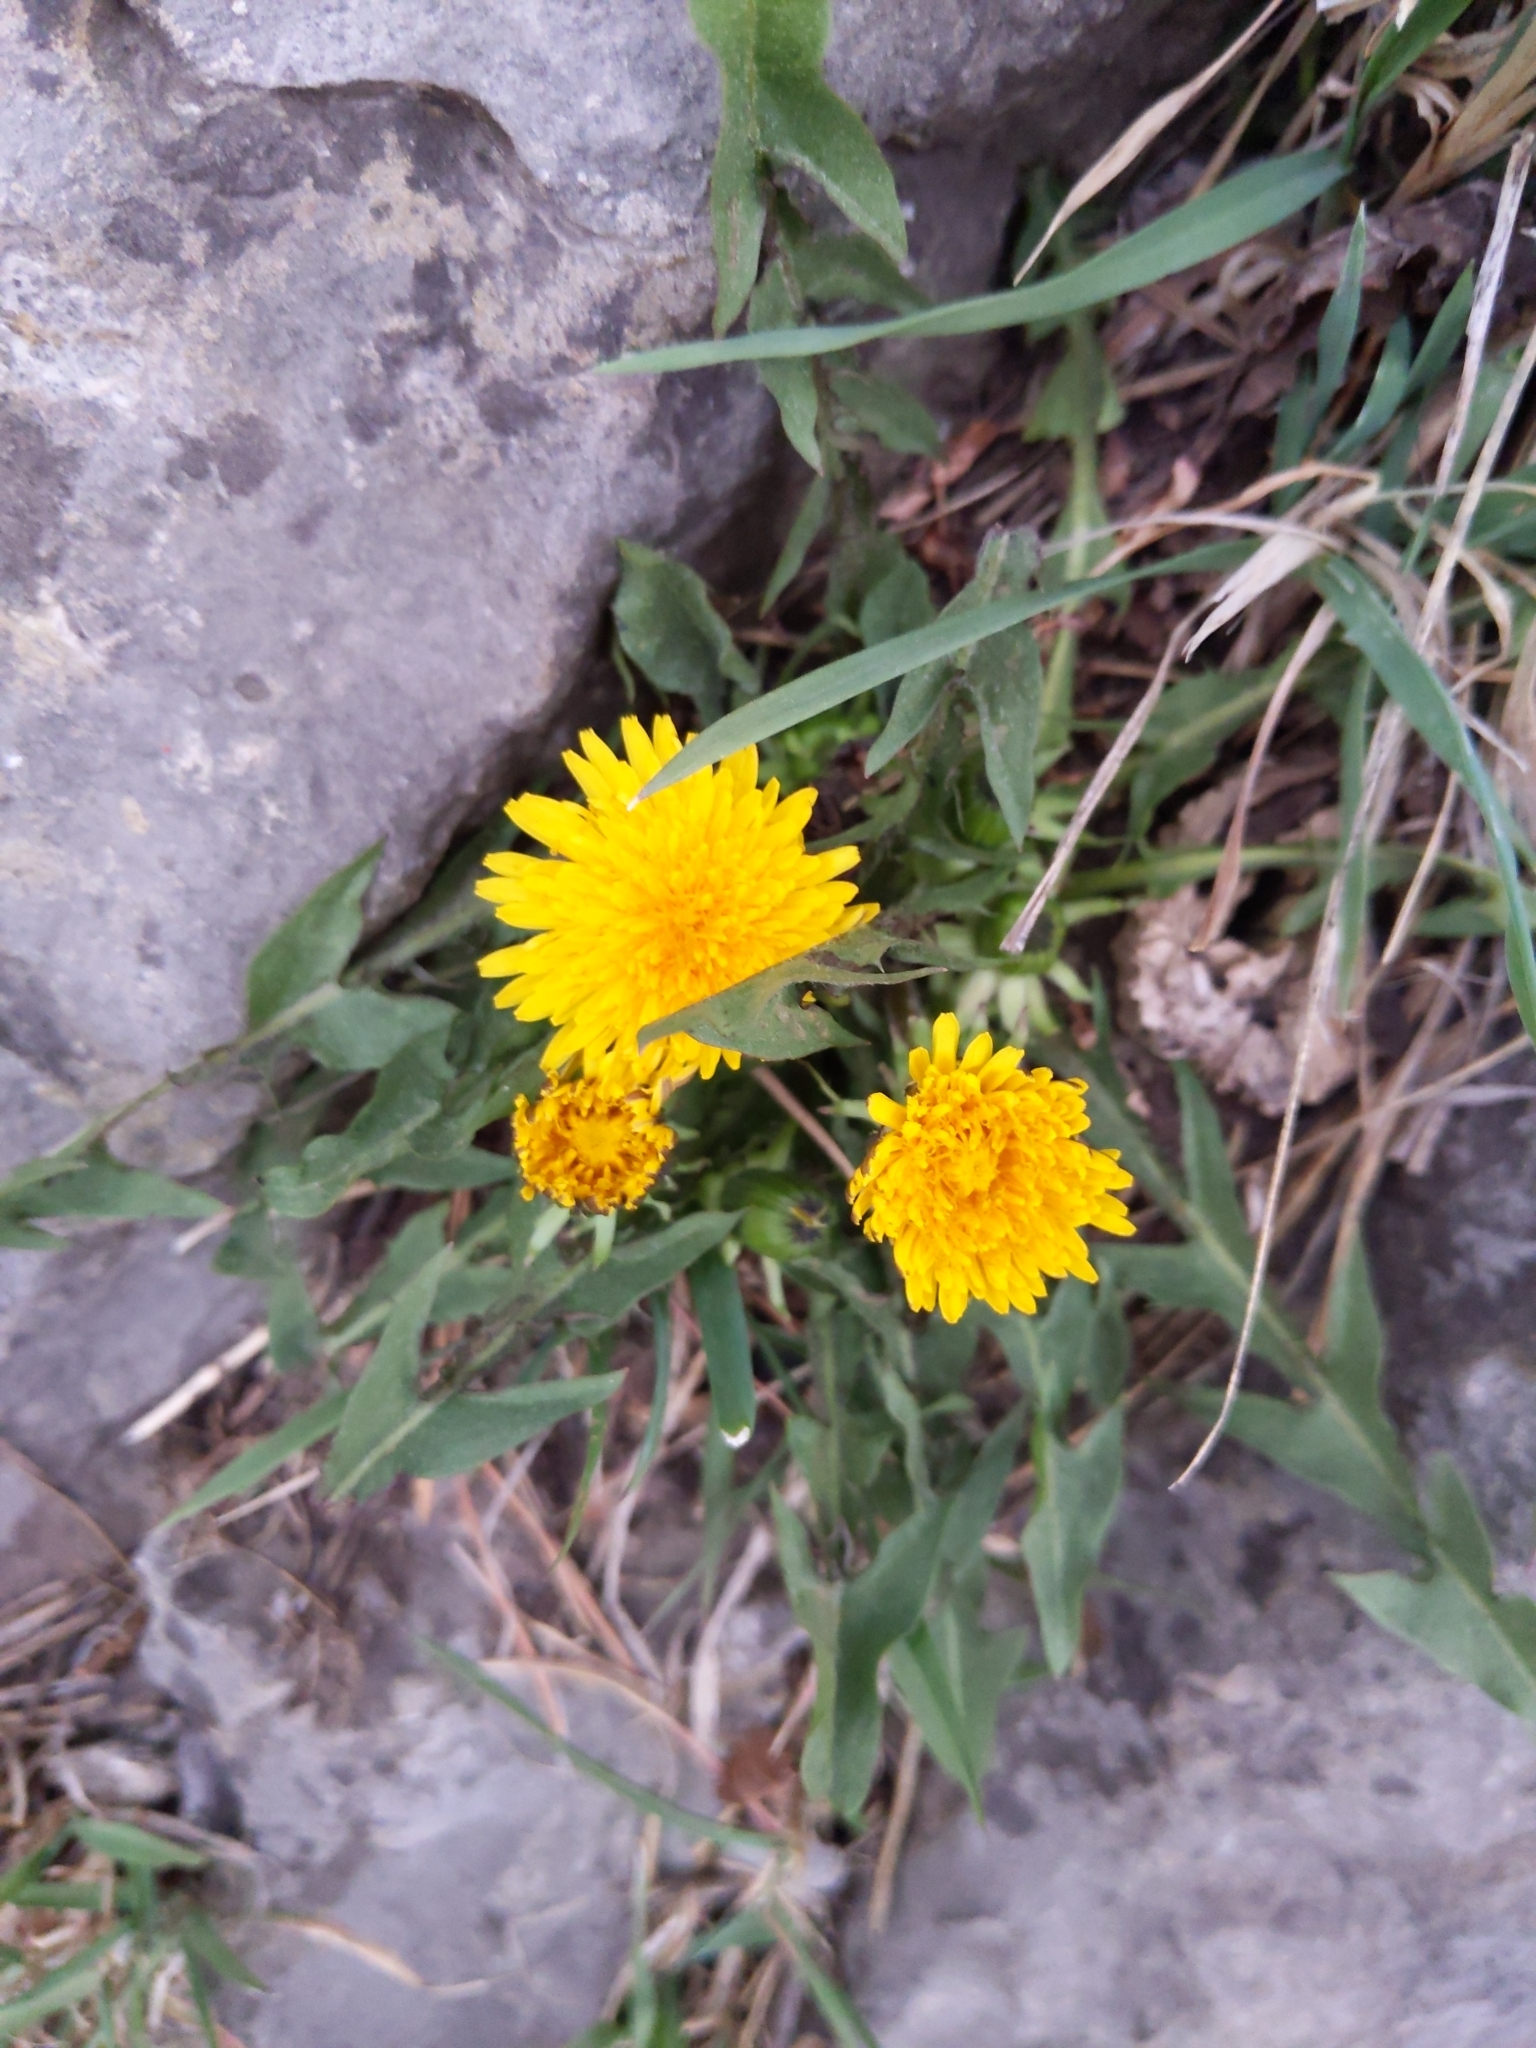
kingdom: Plantae
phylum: Tracheophyta
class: Magnoliopsida
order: Asterales
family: Asteraceae
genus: Taraxacum
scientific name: Taraxacum officinale
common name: Common dandelion
